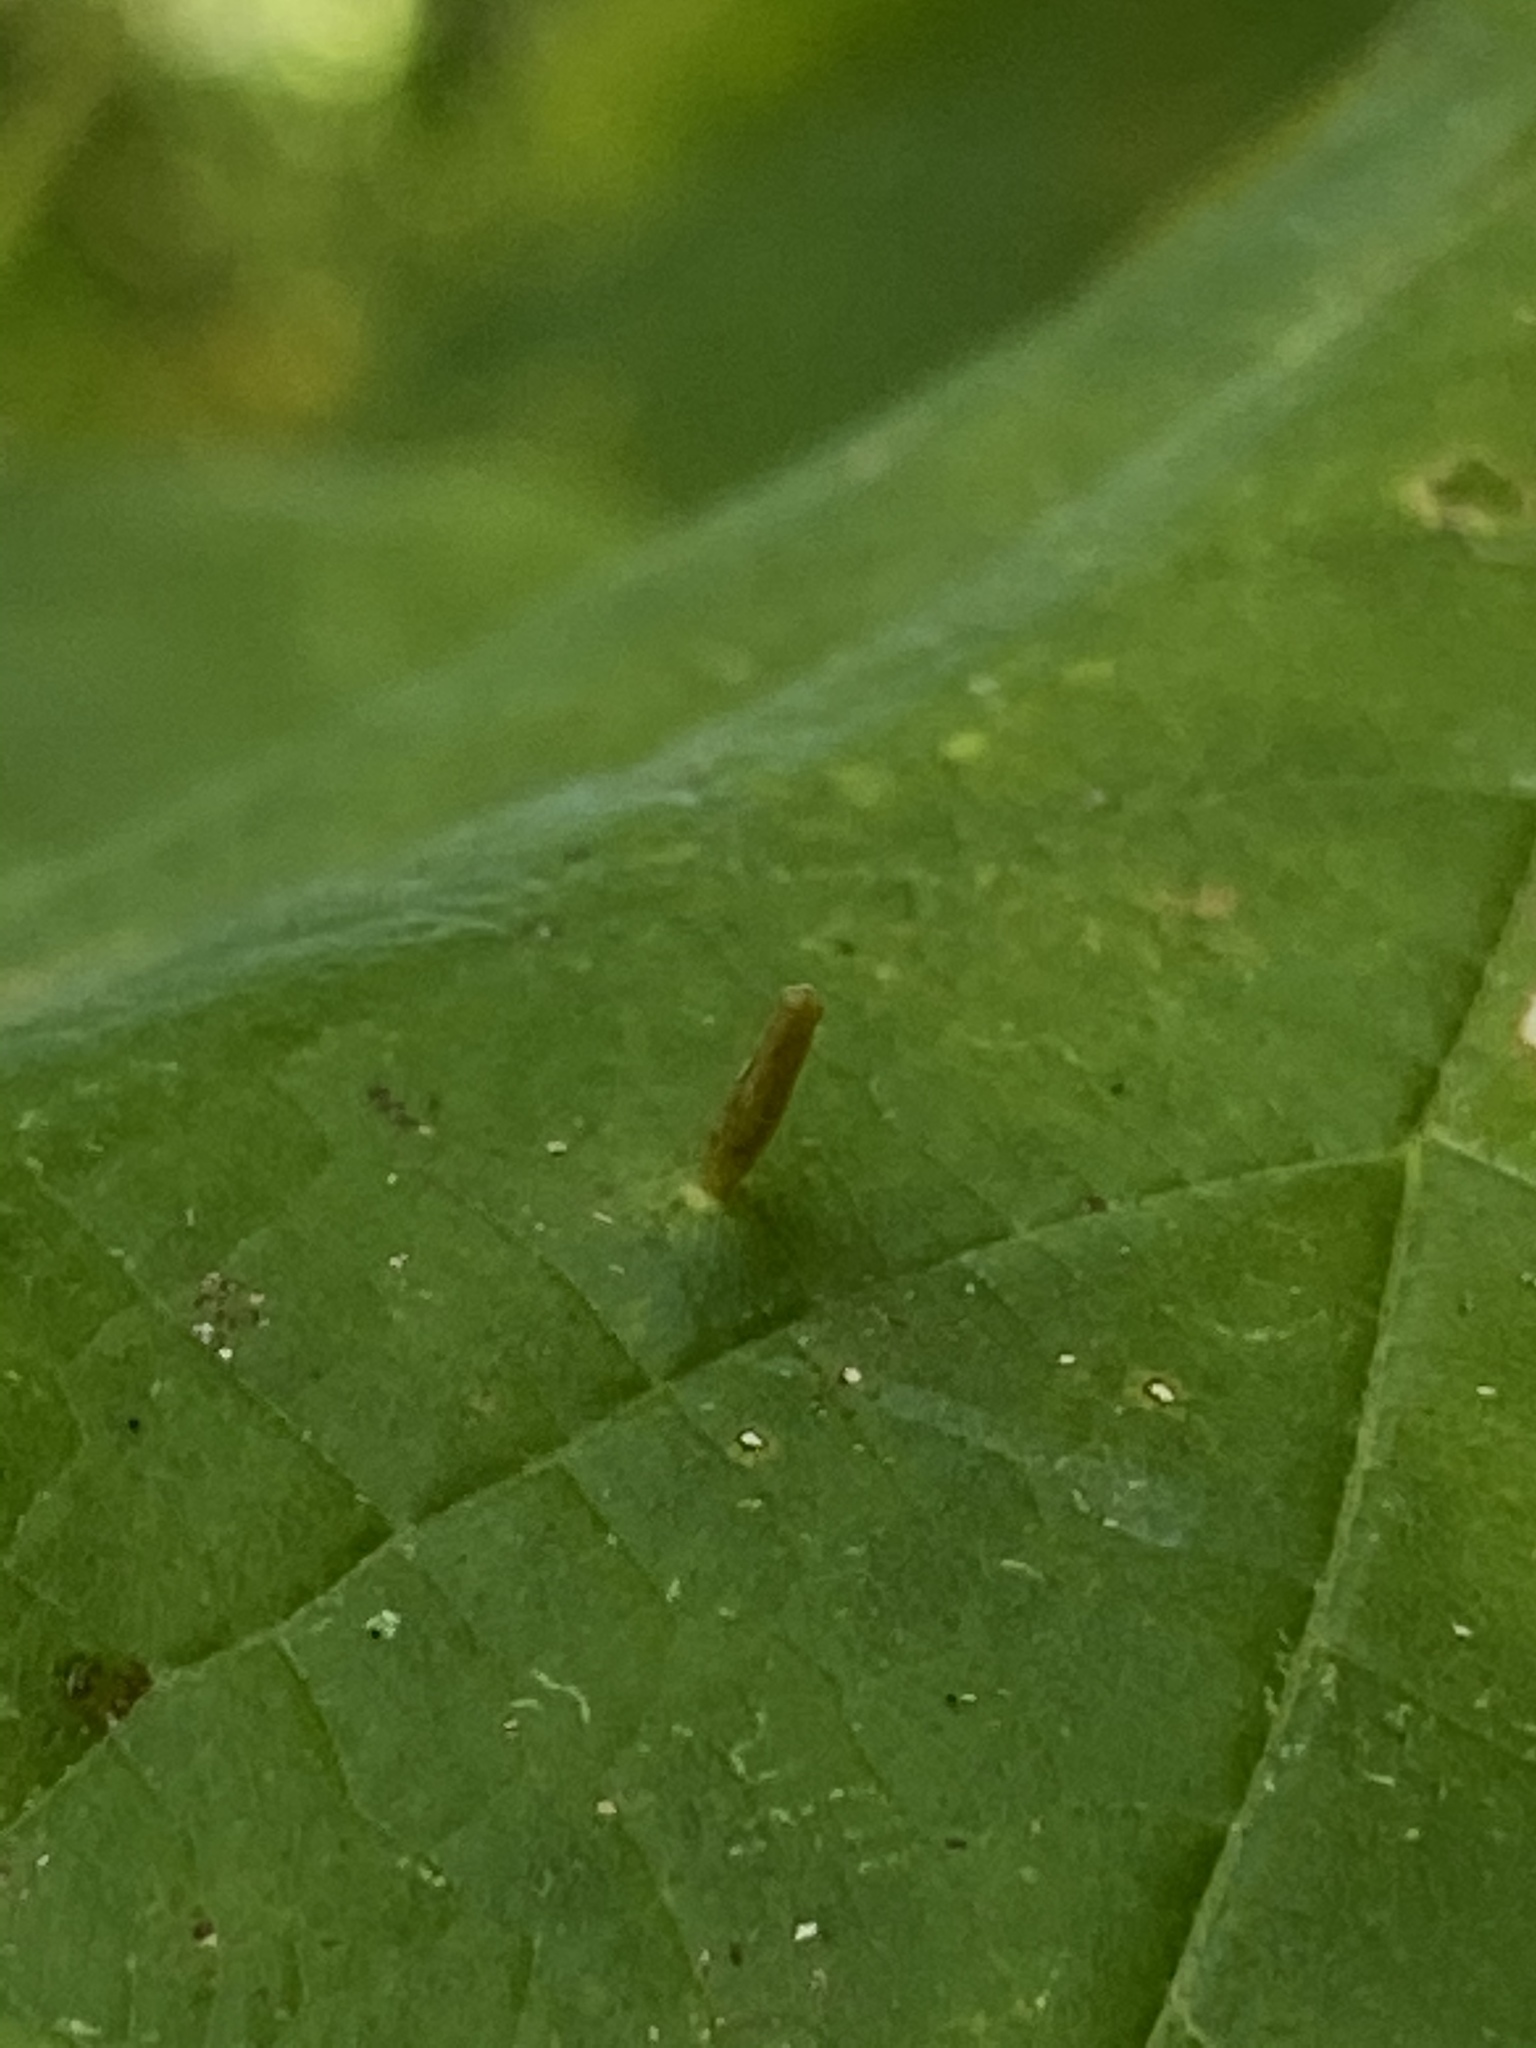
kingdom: Animalia
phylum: Arthropoda
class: Arachnida
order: Trombidiformes
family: Eriophyidae
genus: Vasates
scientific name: Vasates aceriscrumena
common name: Maple spindle gall mite
